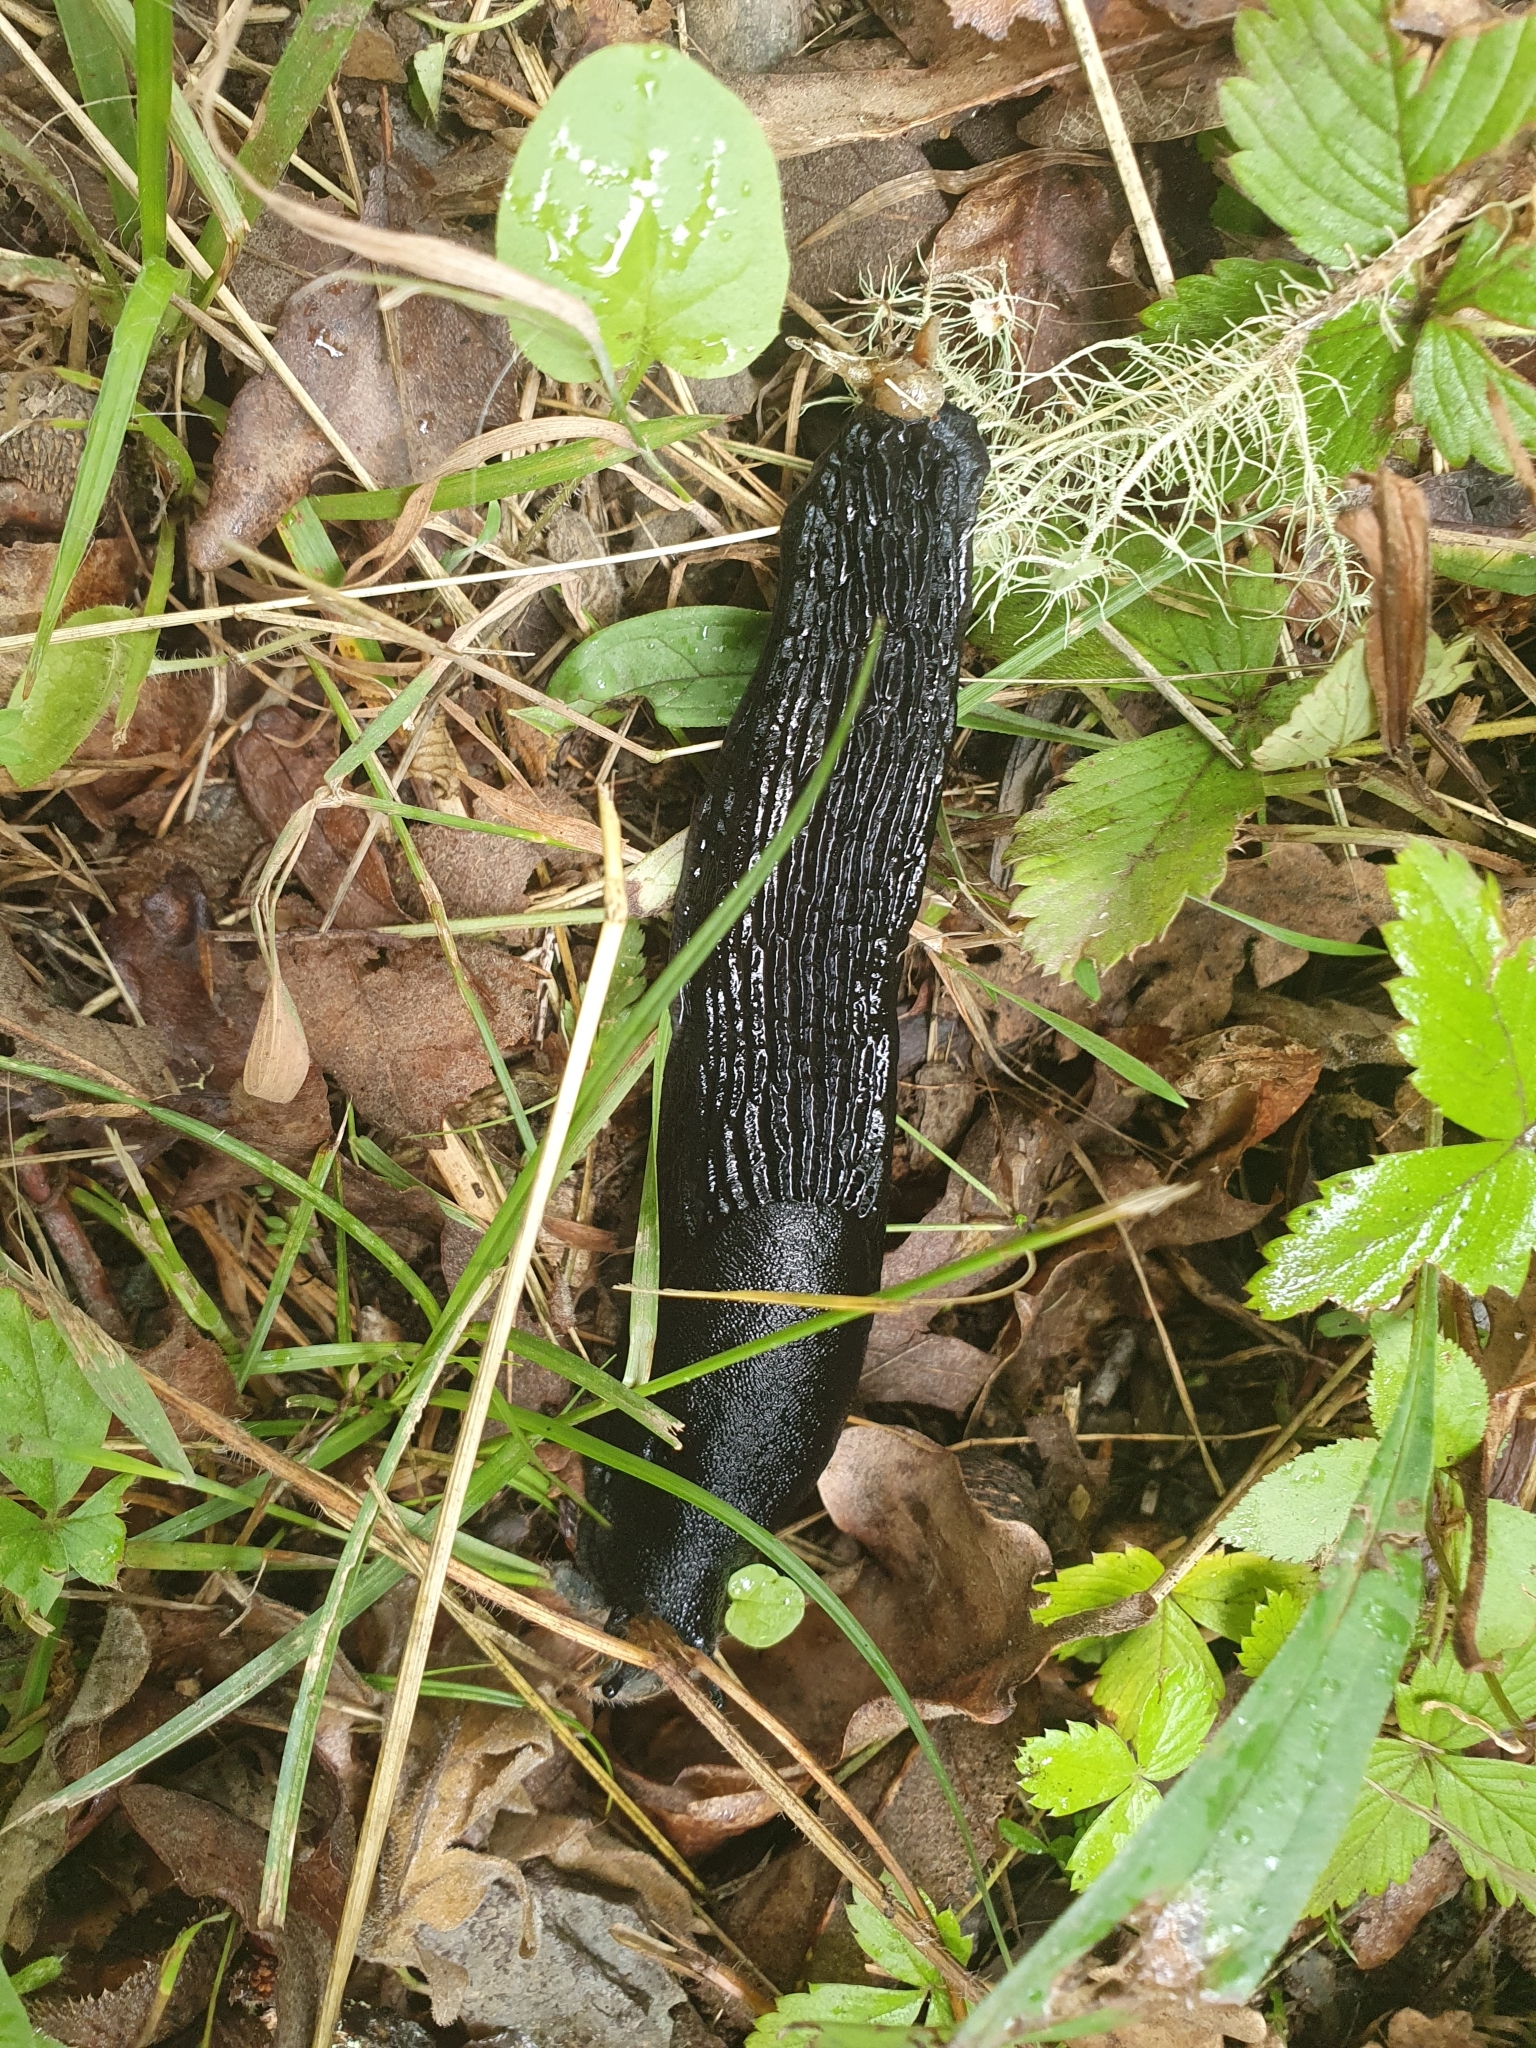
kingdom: Animalia
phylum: Mollusca
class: Gastropoda
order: Stylommatophora
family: Arionidae
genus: Arion
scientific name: Arion ater
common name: Black arion
